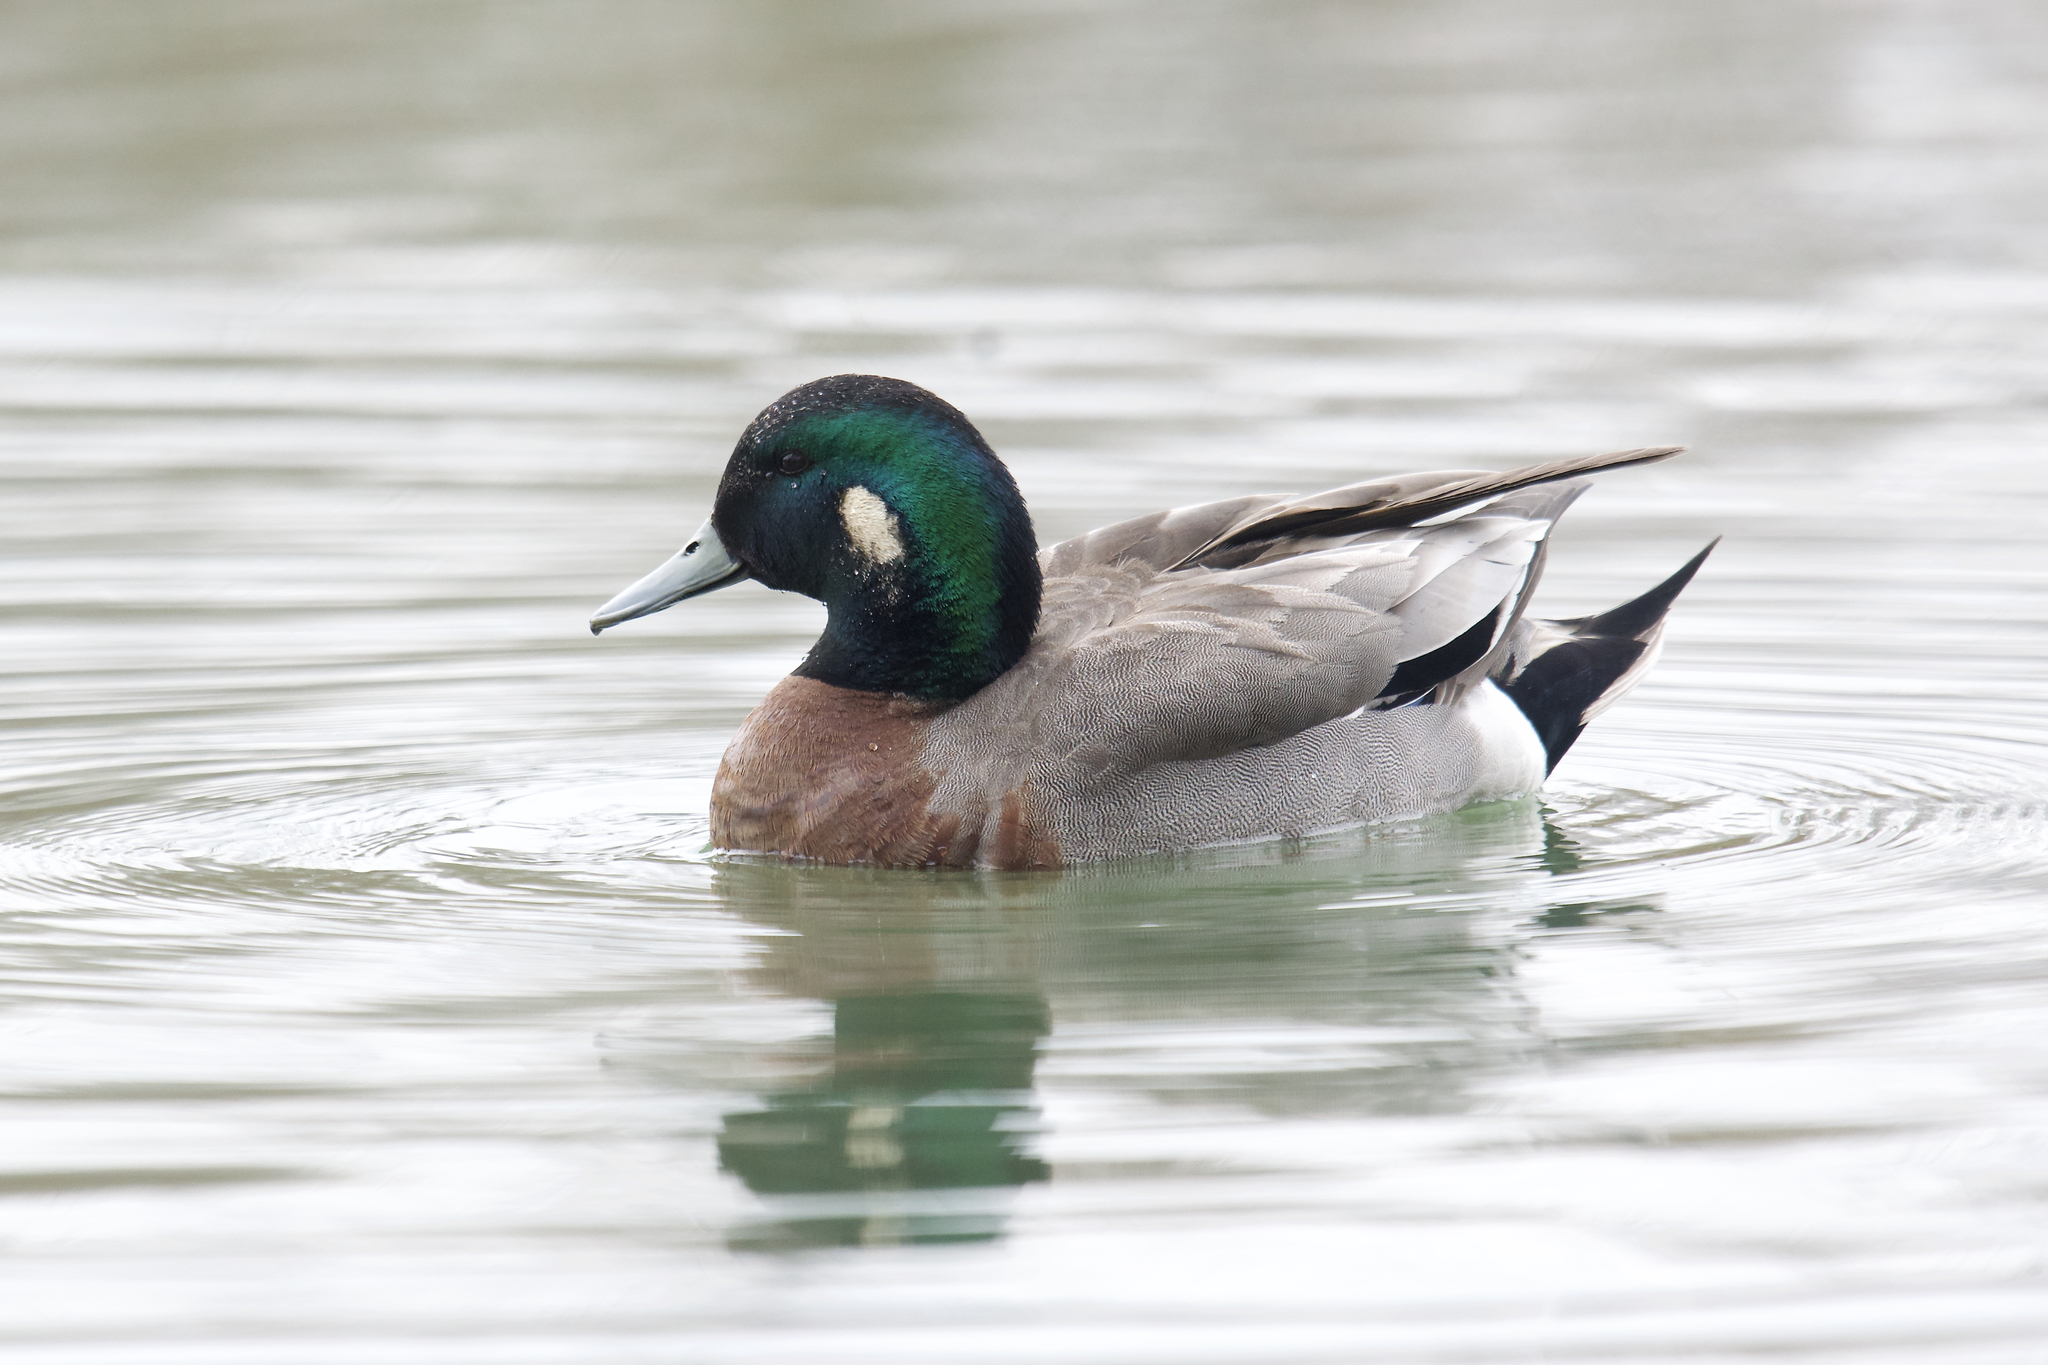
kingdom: Animalia
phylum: Chordata
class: Aves
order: Anseriformes
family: Anatidae
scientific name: Anatidae
